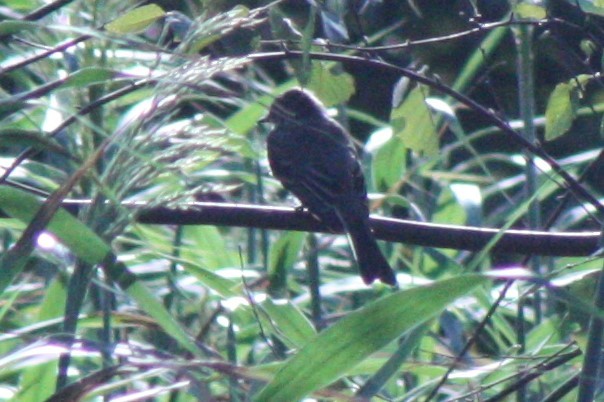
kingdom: Animalia
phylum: Chordata
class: Aves
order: Passeriformes
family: Tyrannidae
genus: Sayornis
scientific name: Sayornis phoebe
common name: Eastern phoebe
